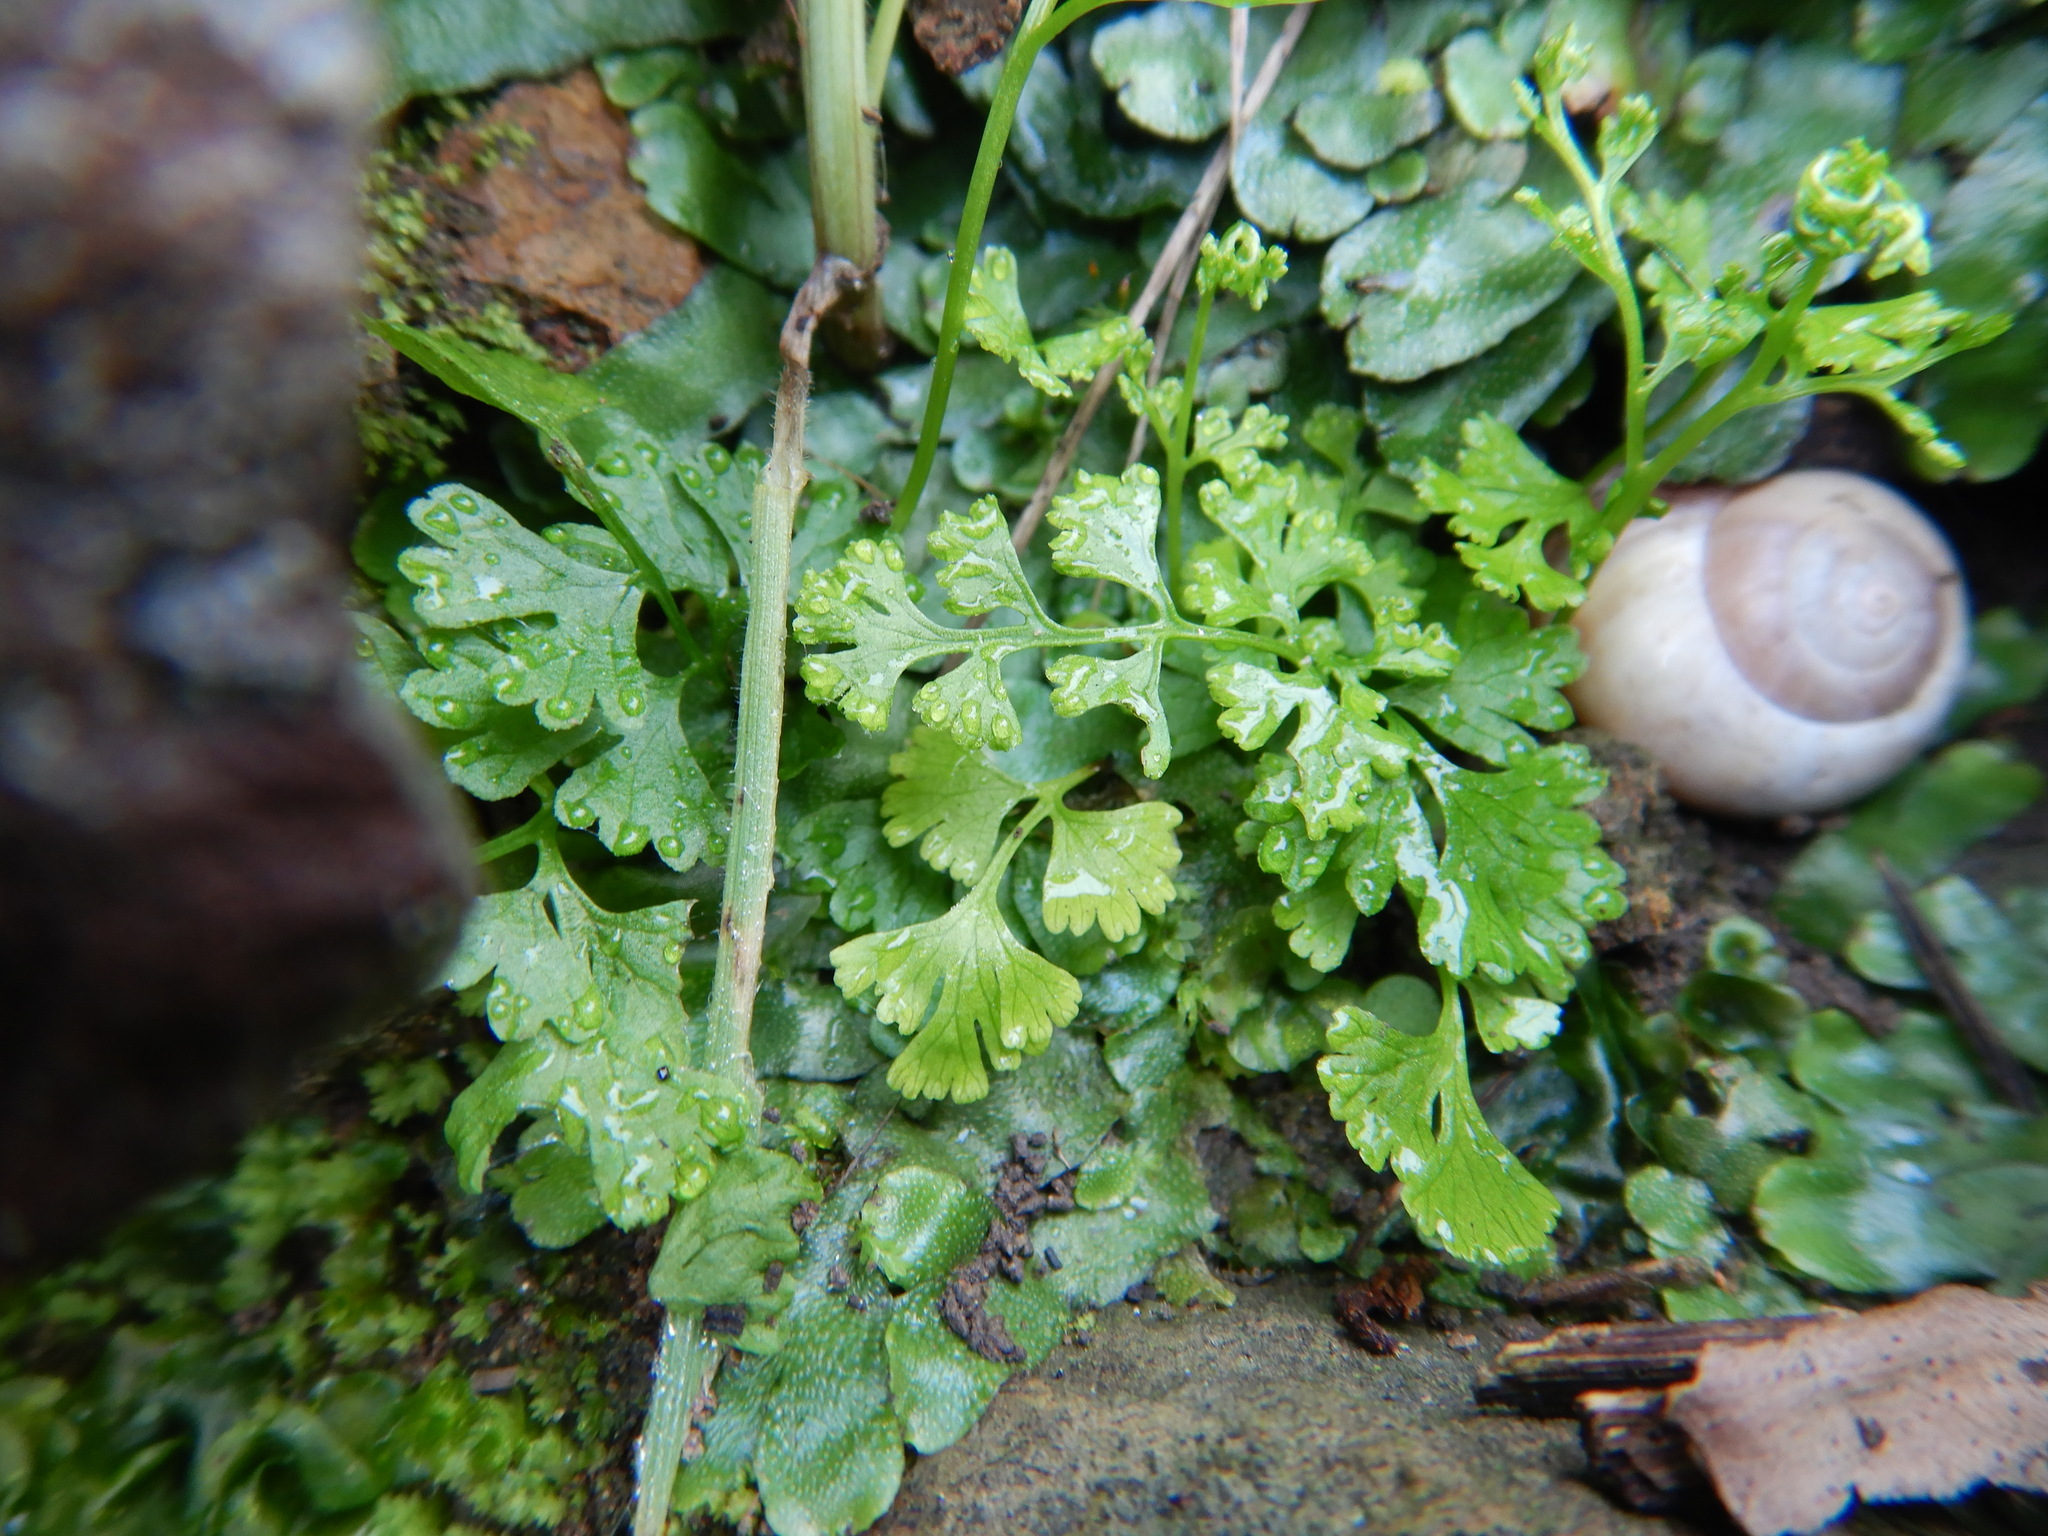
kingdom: Plantae
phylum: Tracheophyta
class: Polypodiopsida
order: Polypodiales
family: Pteridaceae
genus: Anogramma
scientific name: Anogramma leptophylla
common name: Jersey fern
